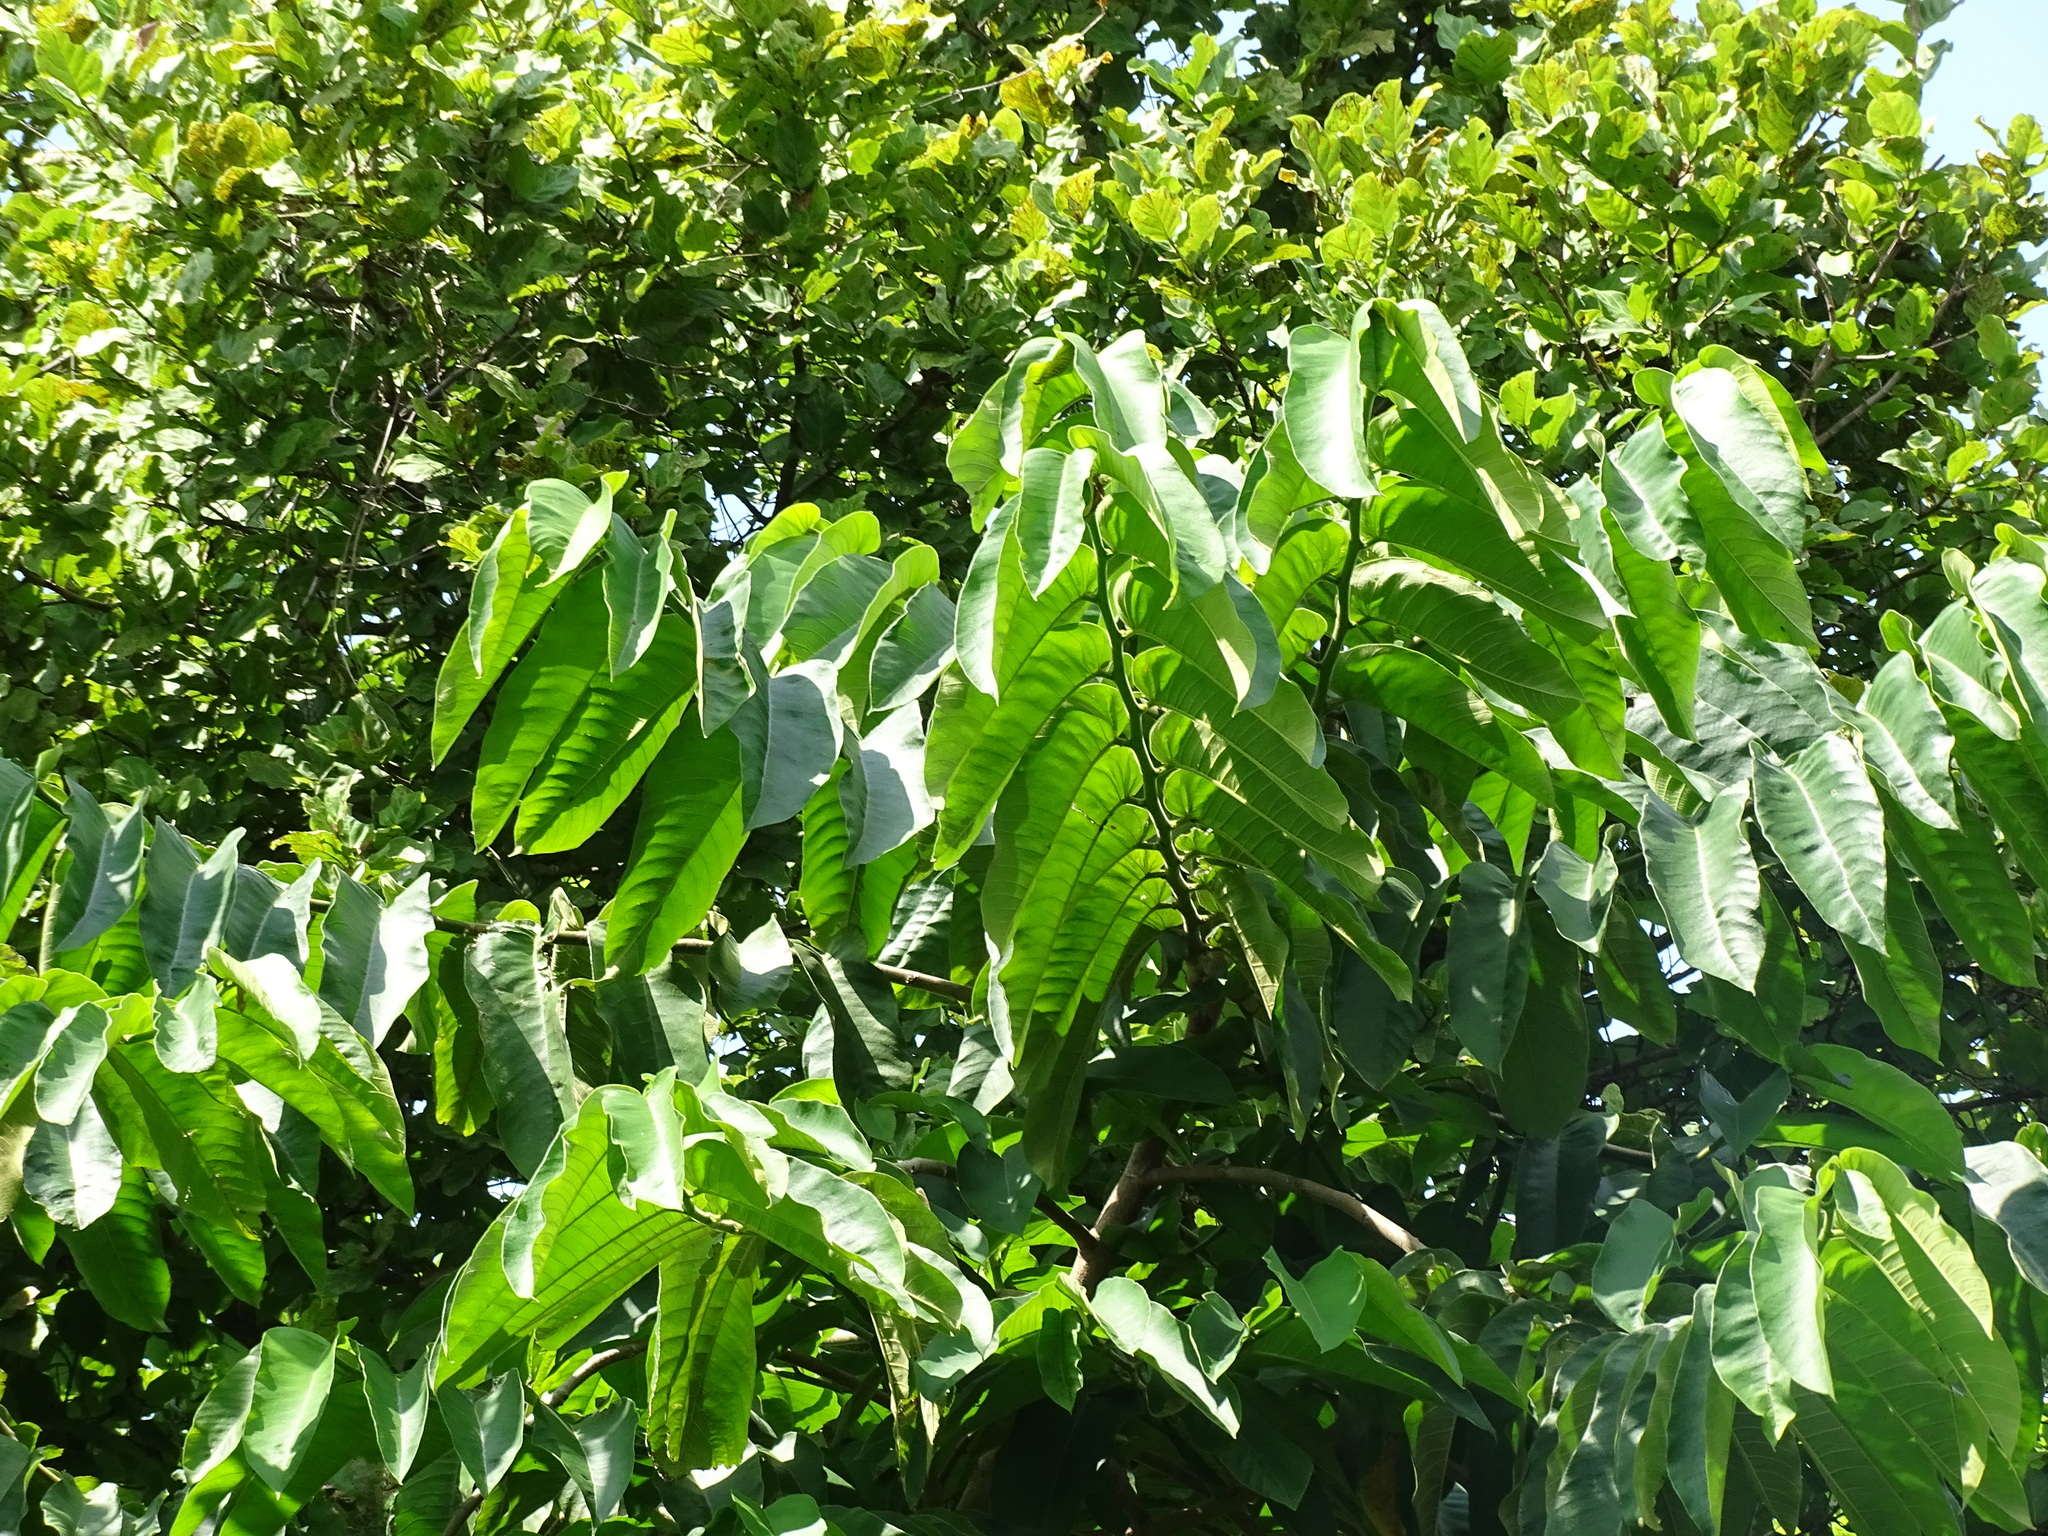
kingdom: Plantae
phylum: Tracheophyta
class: Magnoliopsida
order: Rosales
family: Moraceae
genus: Castilla
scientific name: Castilla elastica
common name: Castilla rubber
